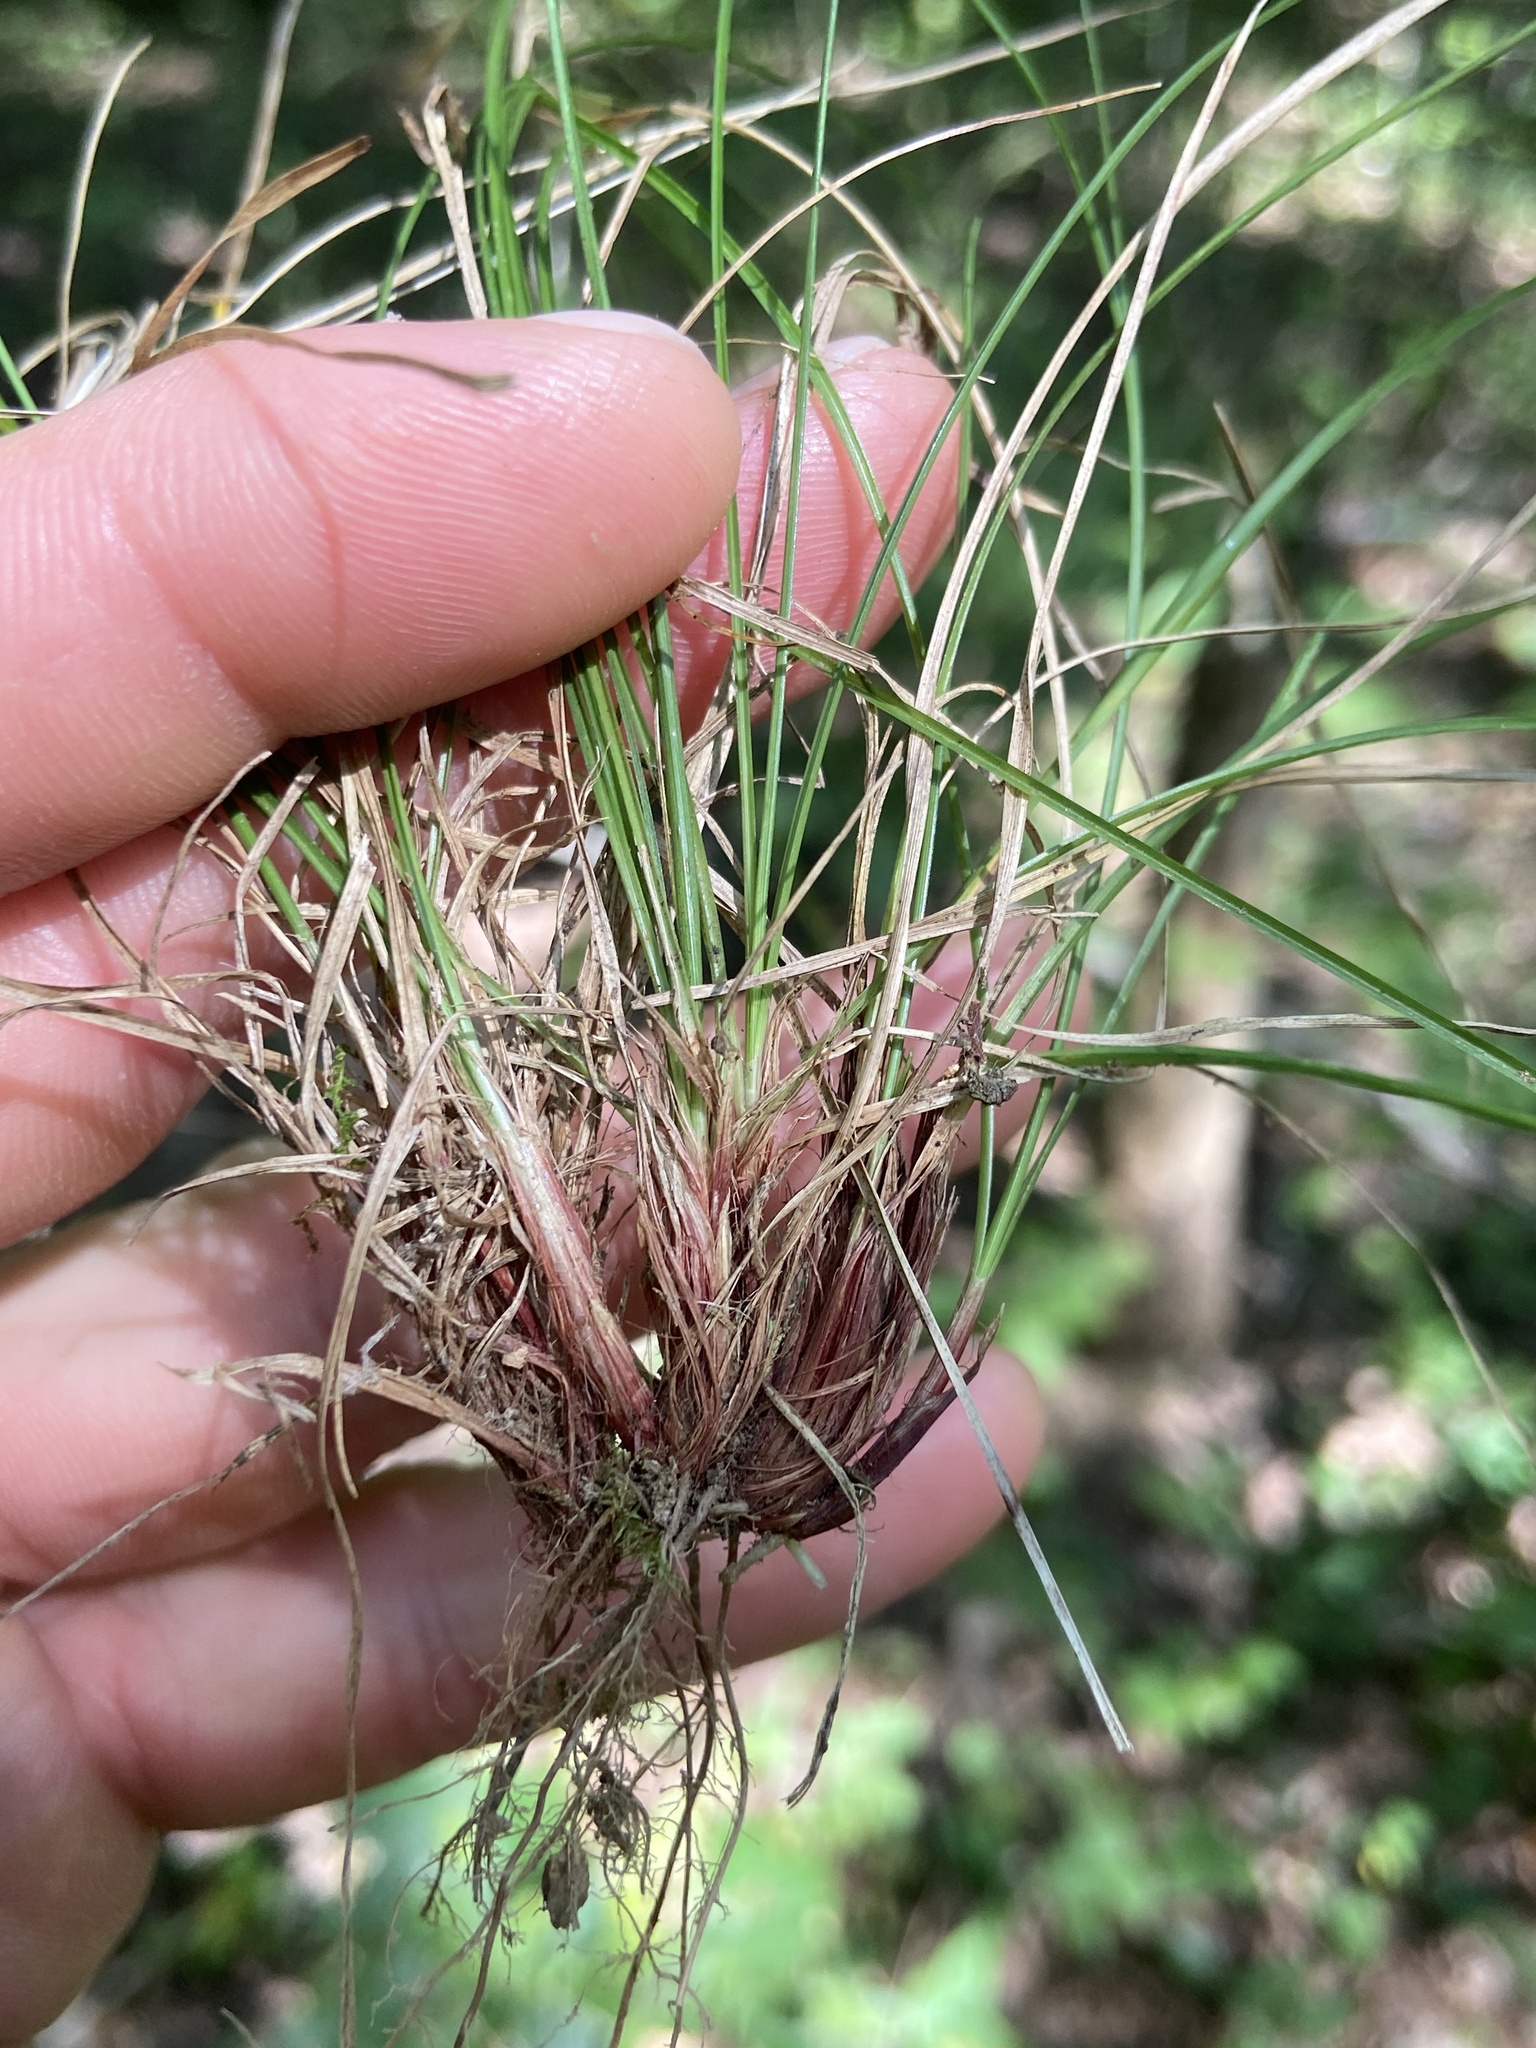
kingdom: Plantae
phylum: Tracheophyta
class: Liliopsida
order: Poales
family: Cyperaceae
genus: Carex
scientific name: Carex albicans
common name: Bellow-beaked sedge
